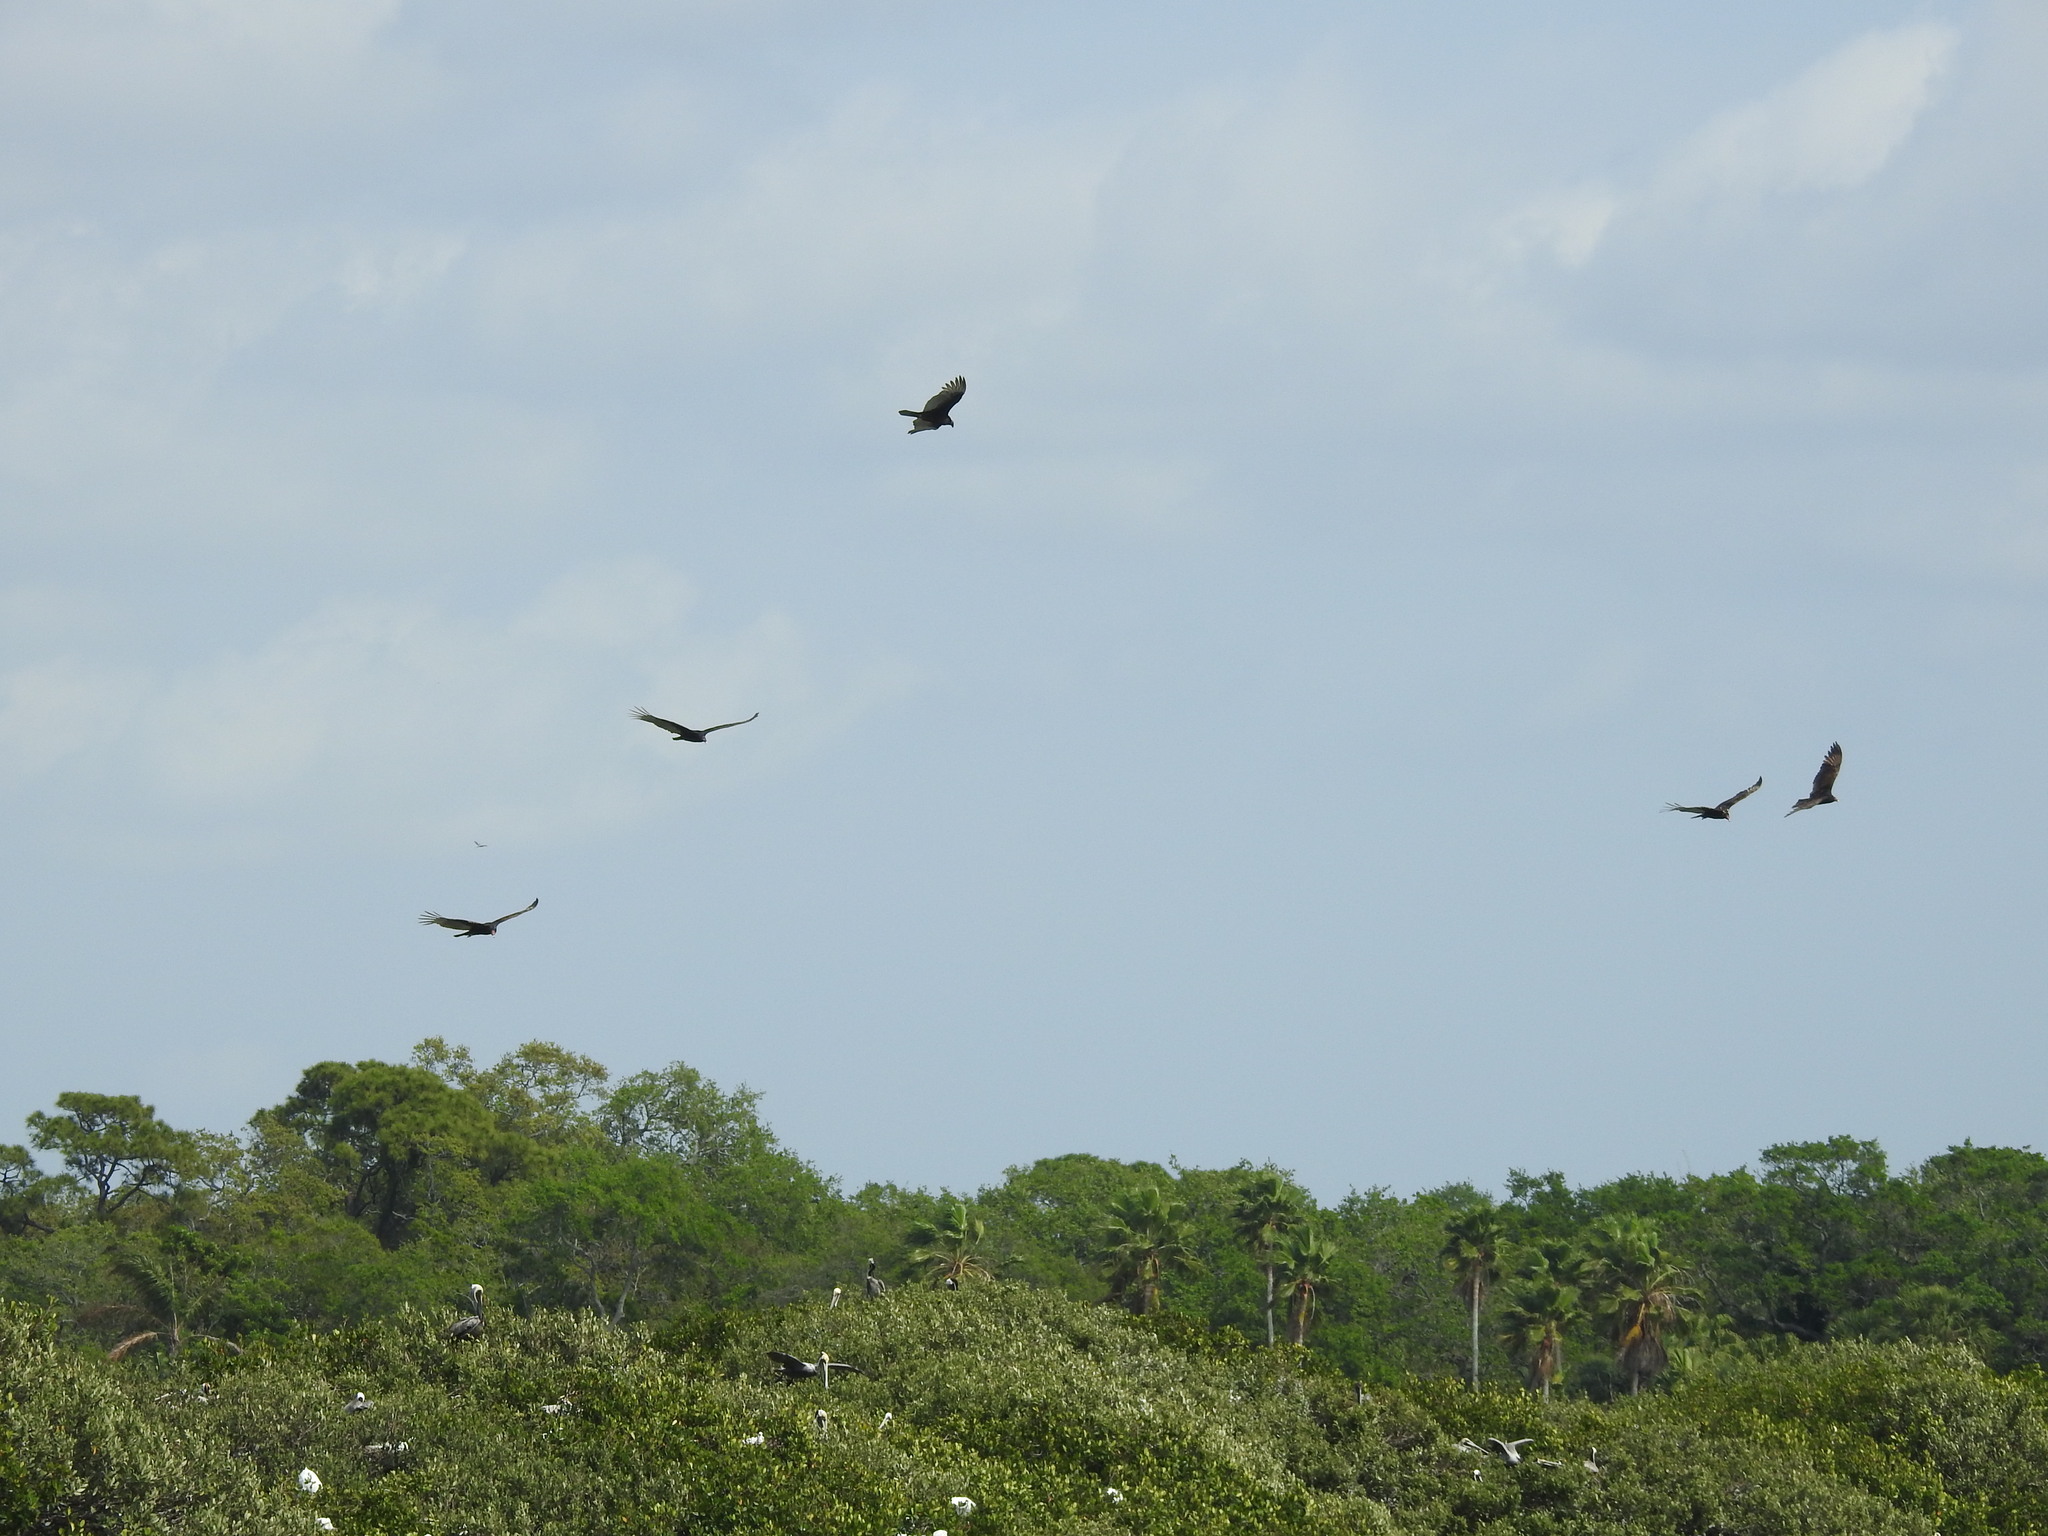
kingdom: Animalia
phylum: Chordata
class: Aves
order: Accipitriformes
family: Cathartidae
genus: Cathartes
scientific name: Cathartes aura
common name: Turkey vulture
